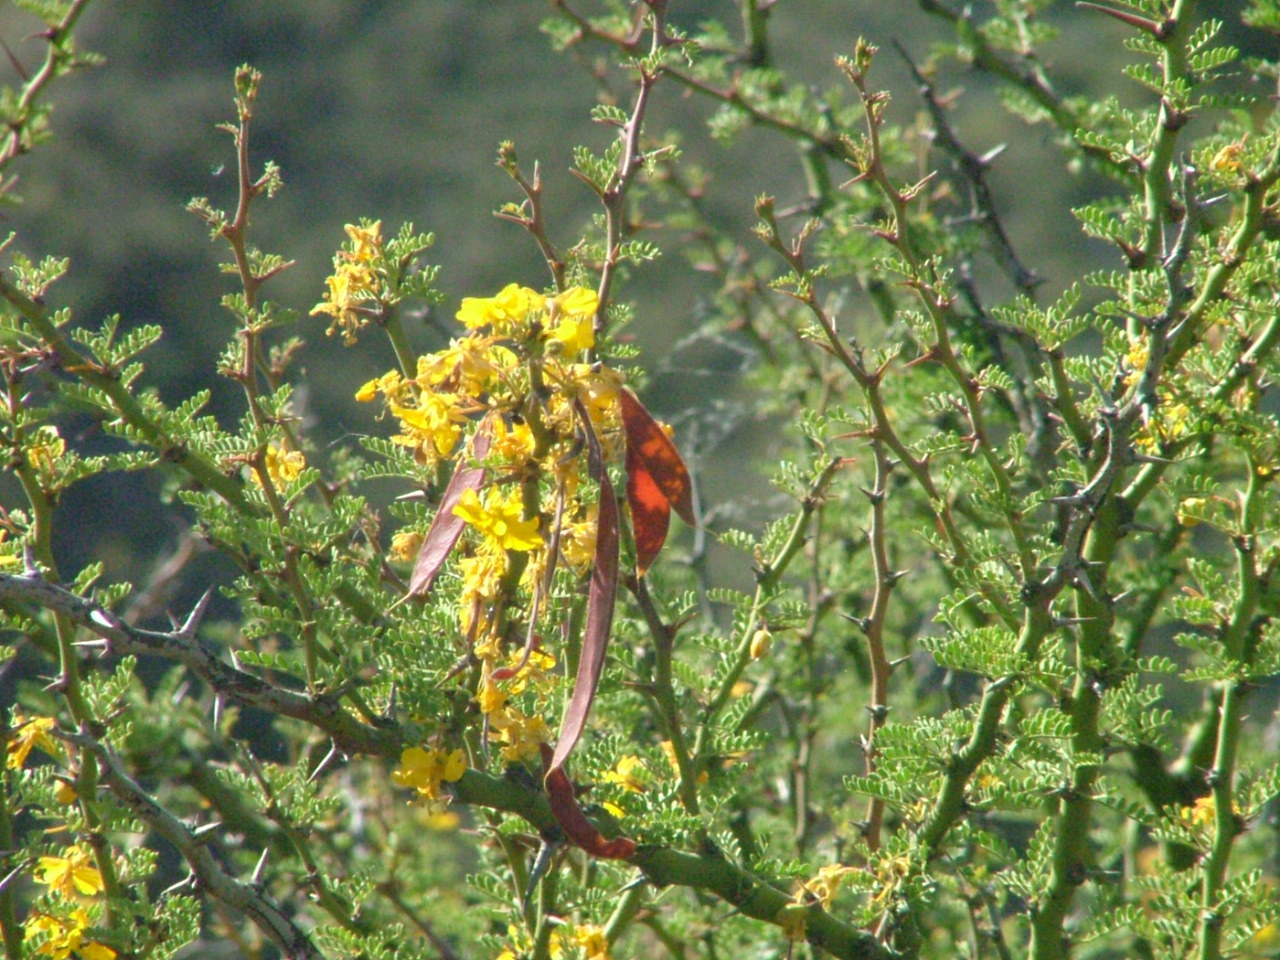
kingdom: Plantae
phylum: Tracheophyta
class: Magnoliopsida
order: Fabales
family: Fabaceae
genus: Parkinsonia
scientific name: Parkinsonia praecox
